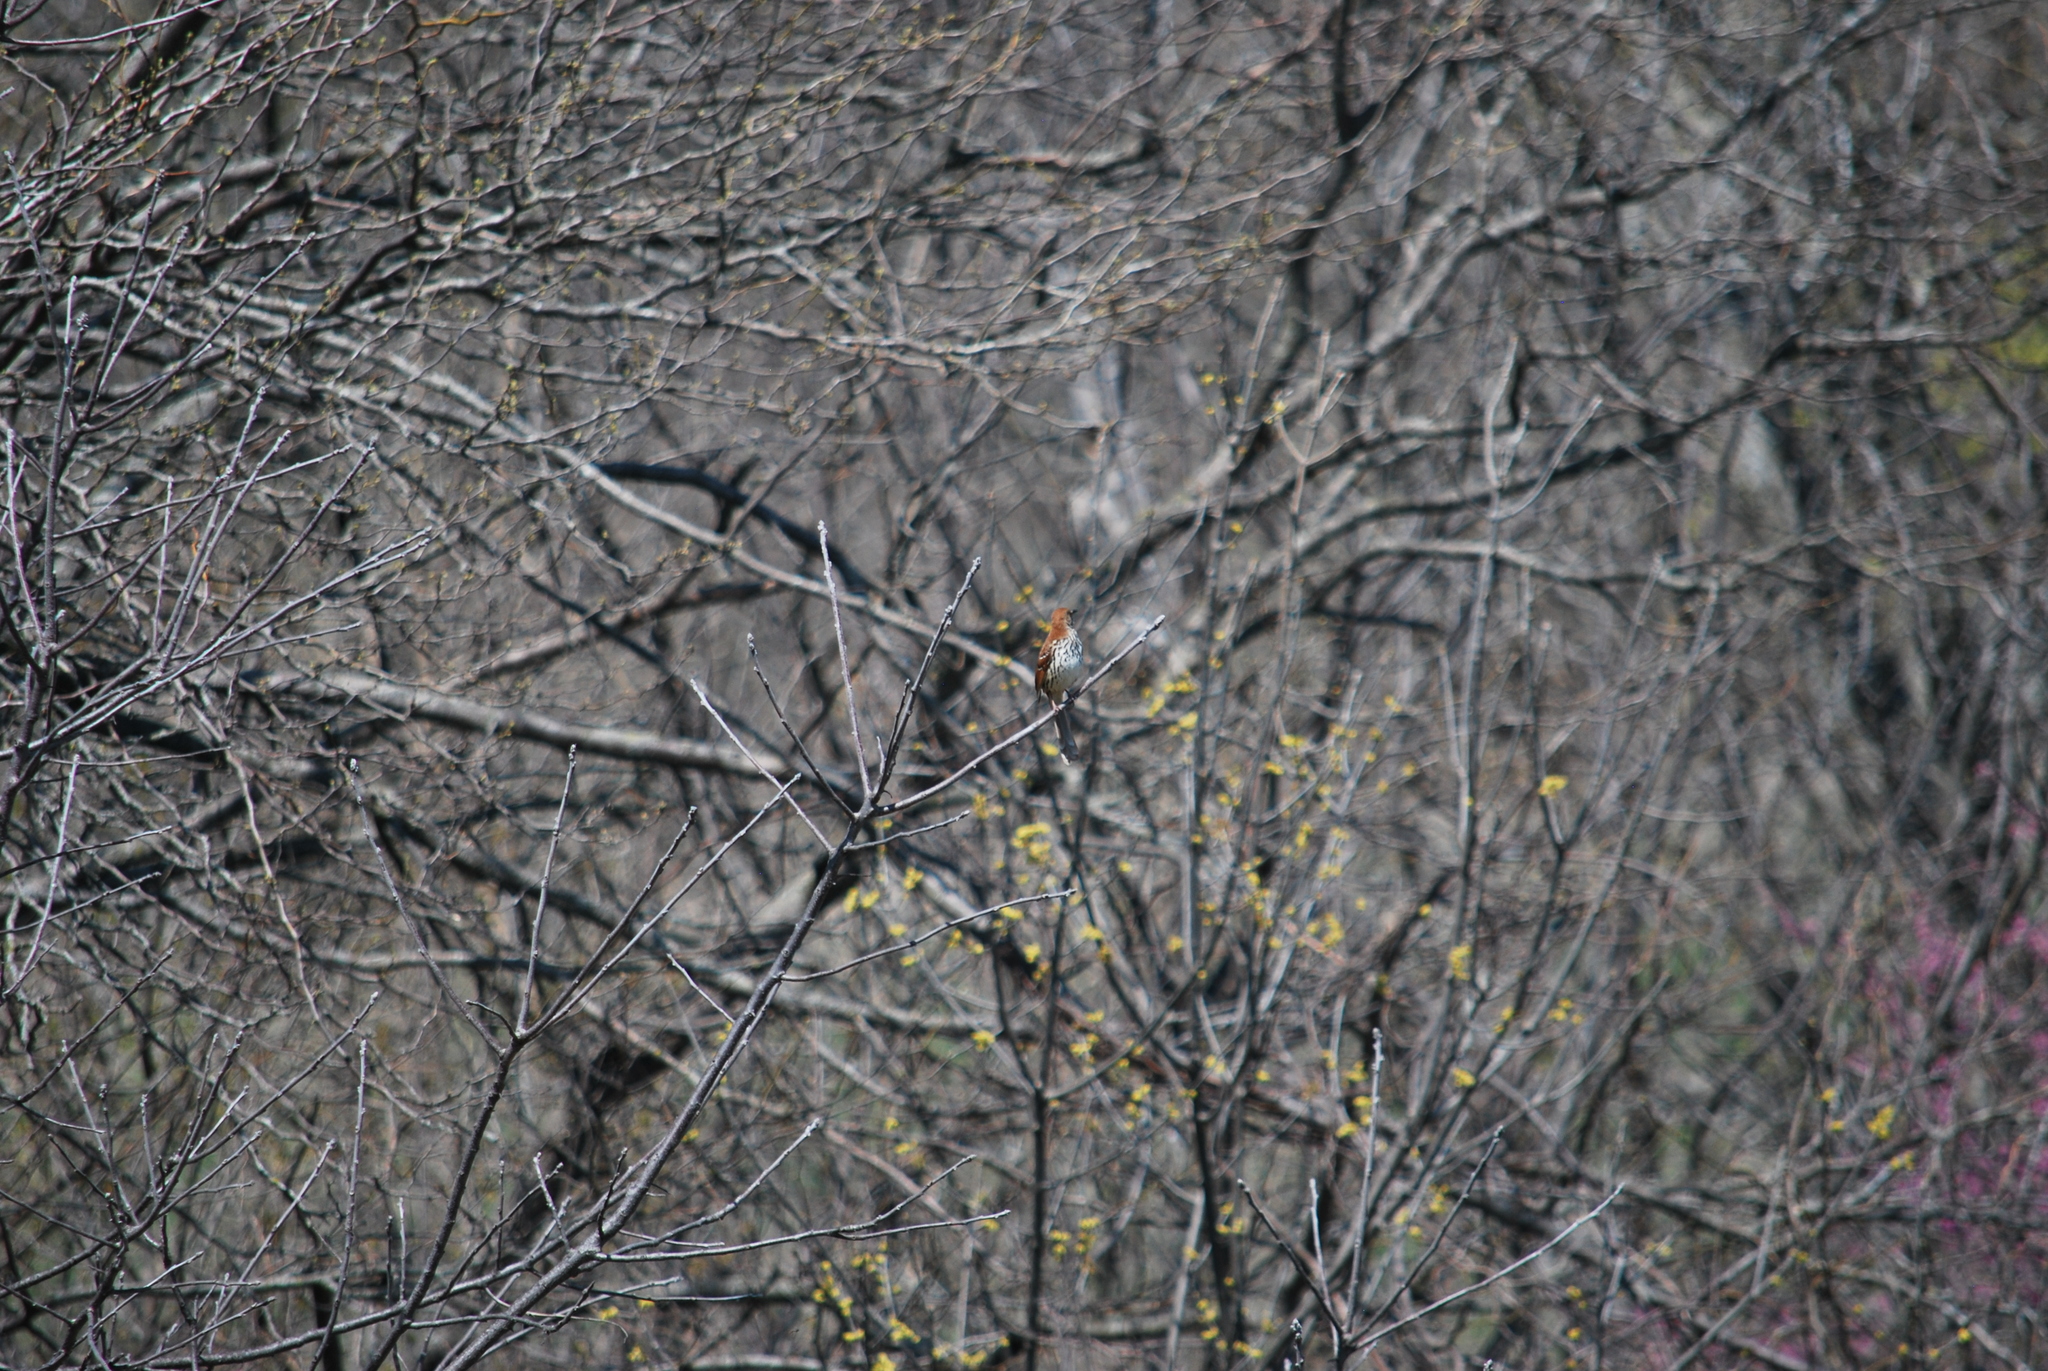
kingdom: Animalia
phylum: Chordata
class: Aves
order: Passeriformes
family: Mimidae
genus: Toxostoma
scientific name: Toxostoma rufum
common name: Brown thrasher
